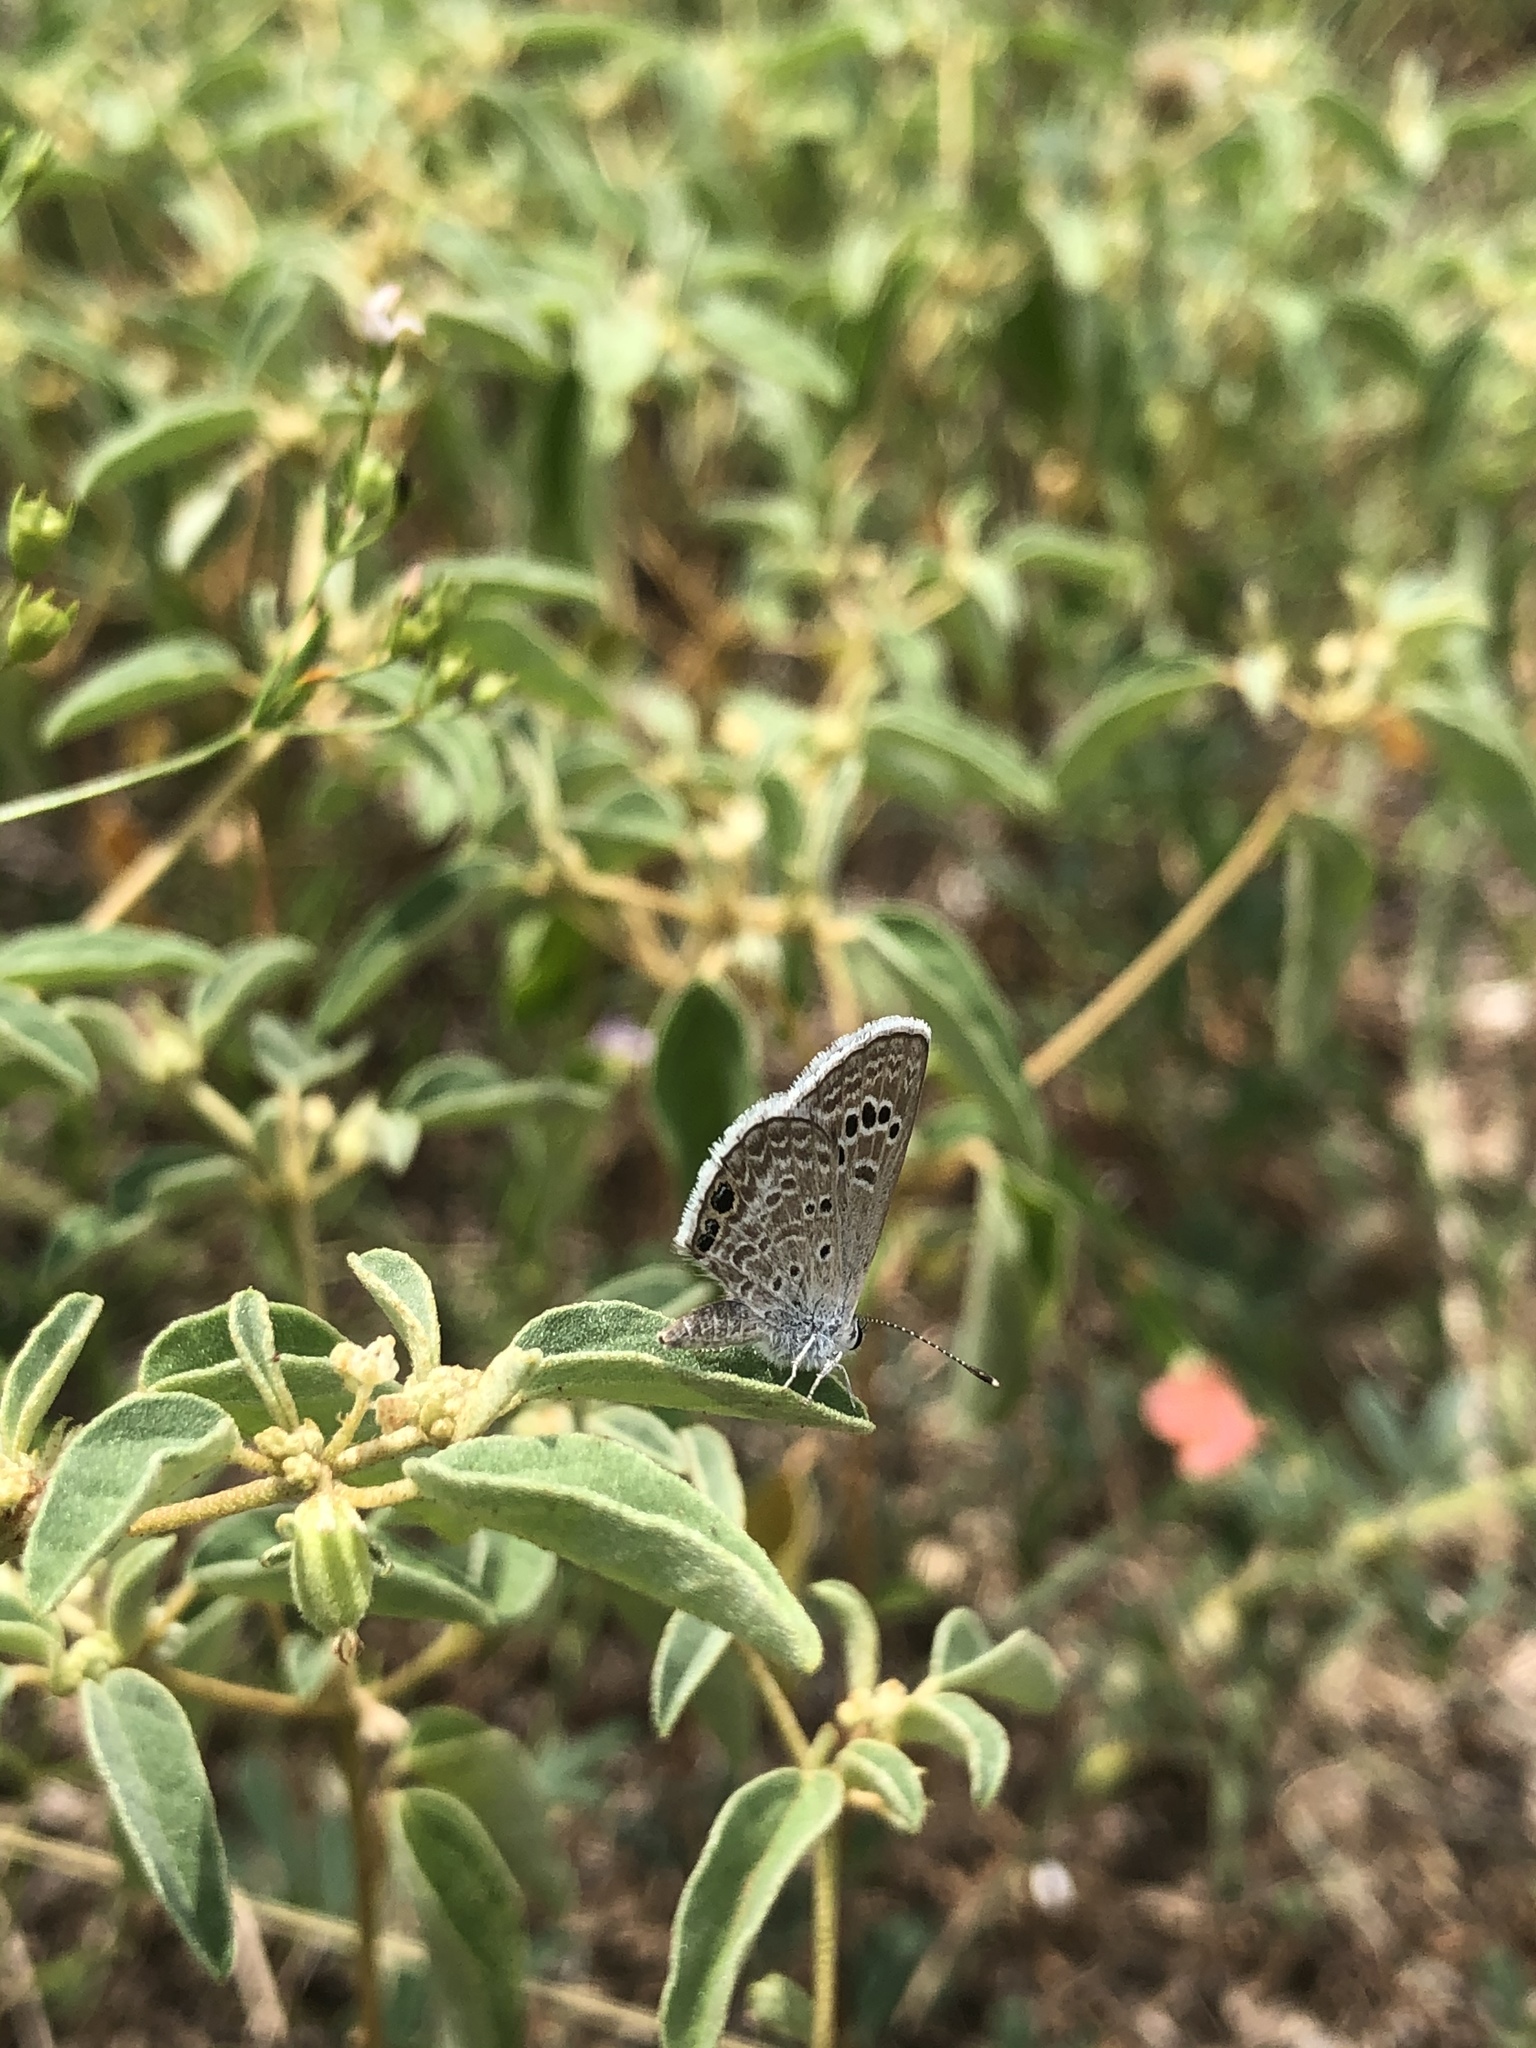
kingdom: Animalia
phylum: Arthropoda
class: Insecta
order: Lepidoptera
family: Lycaenidae
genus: Echinargus
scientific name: Echinargus isola
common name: Reakirt's blue
